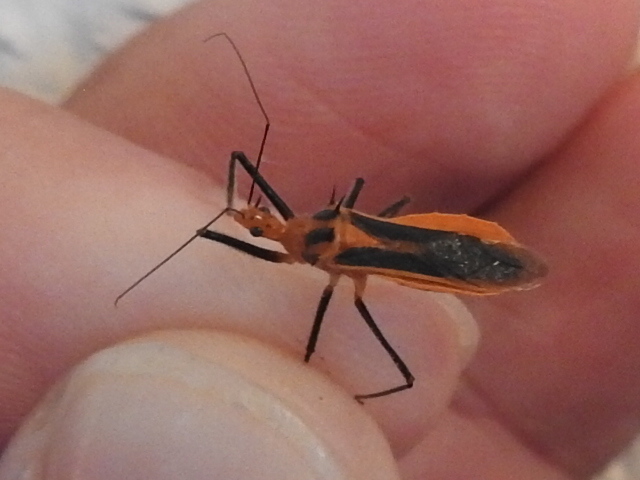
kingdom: Animalia
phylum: Arthropoda
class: Insecta
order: Hemiptera
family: Reduviidae
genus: Repipta
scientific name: Repipta taurus
